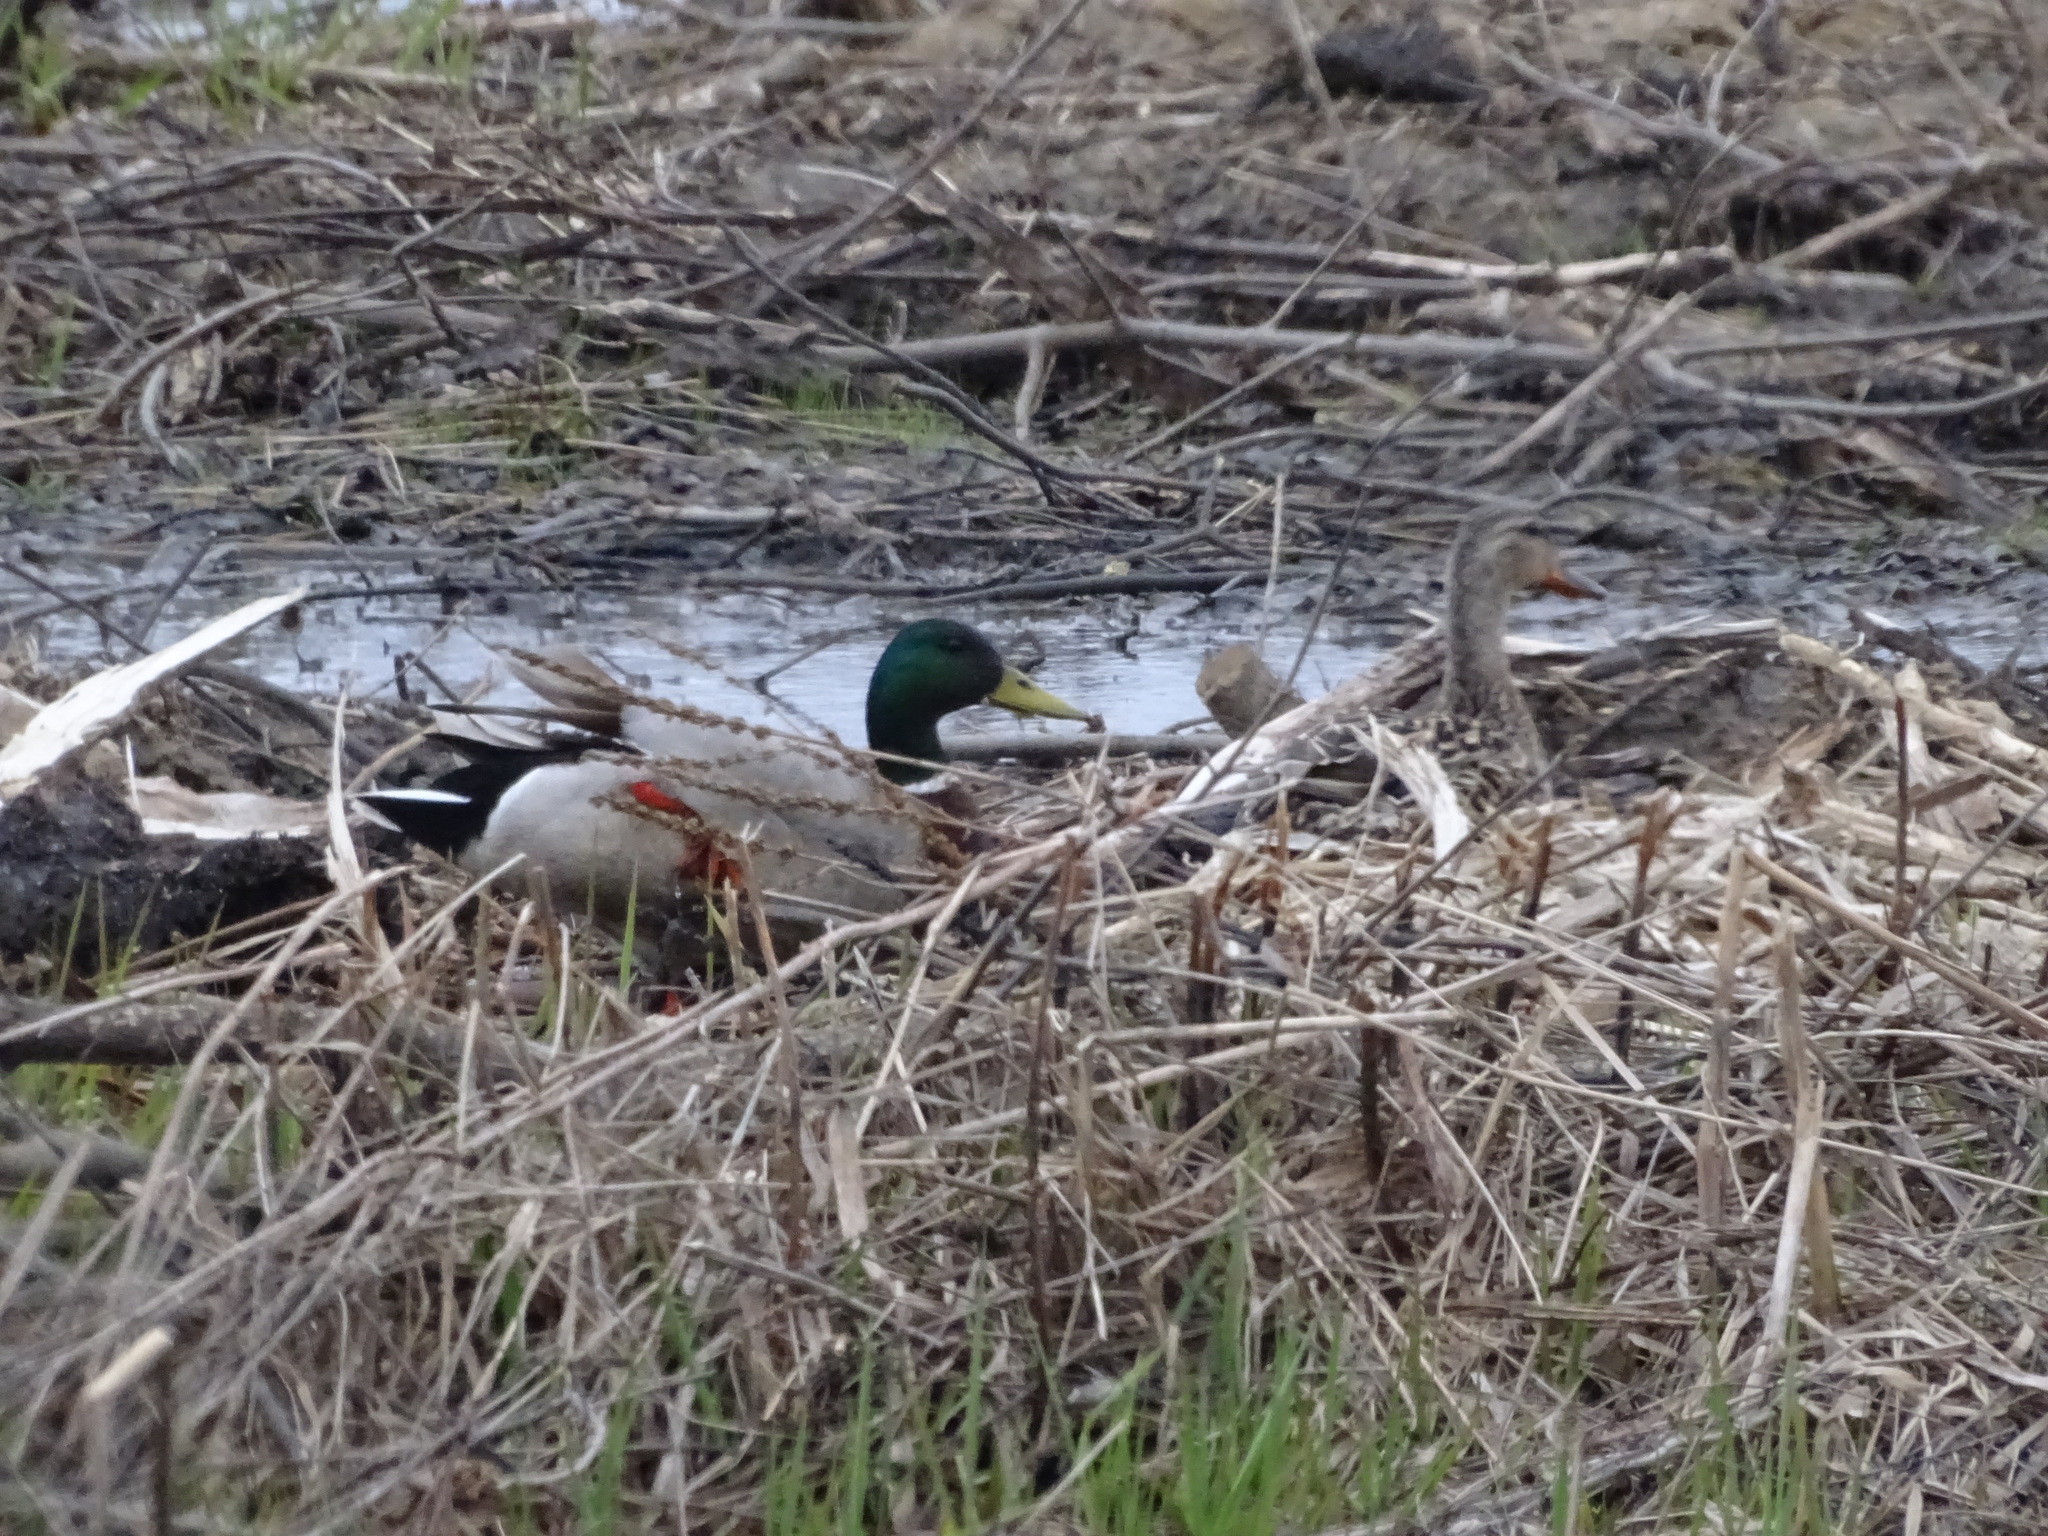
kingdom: Animalia
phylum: Chordata
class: Aves
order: Anseriformes
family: Anatidae
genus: Anas
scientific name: Anas platyrhynchos
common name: Mallard
